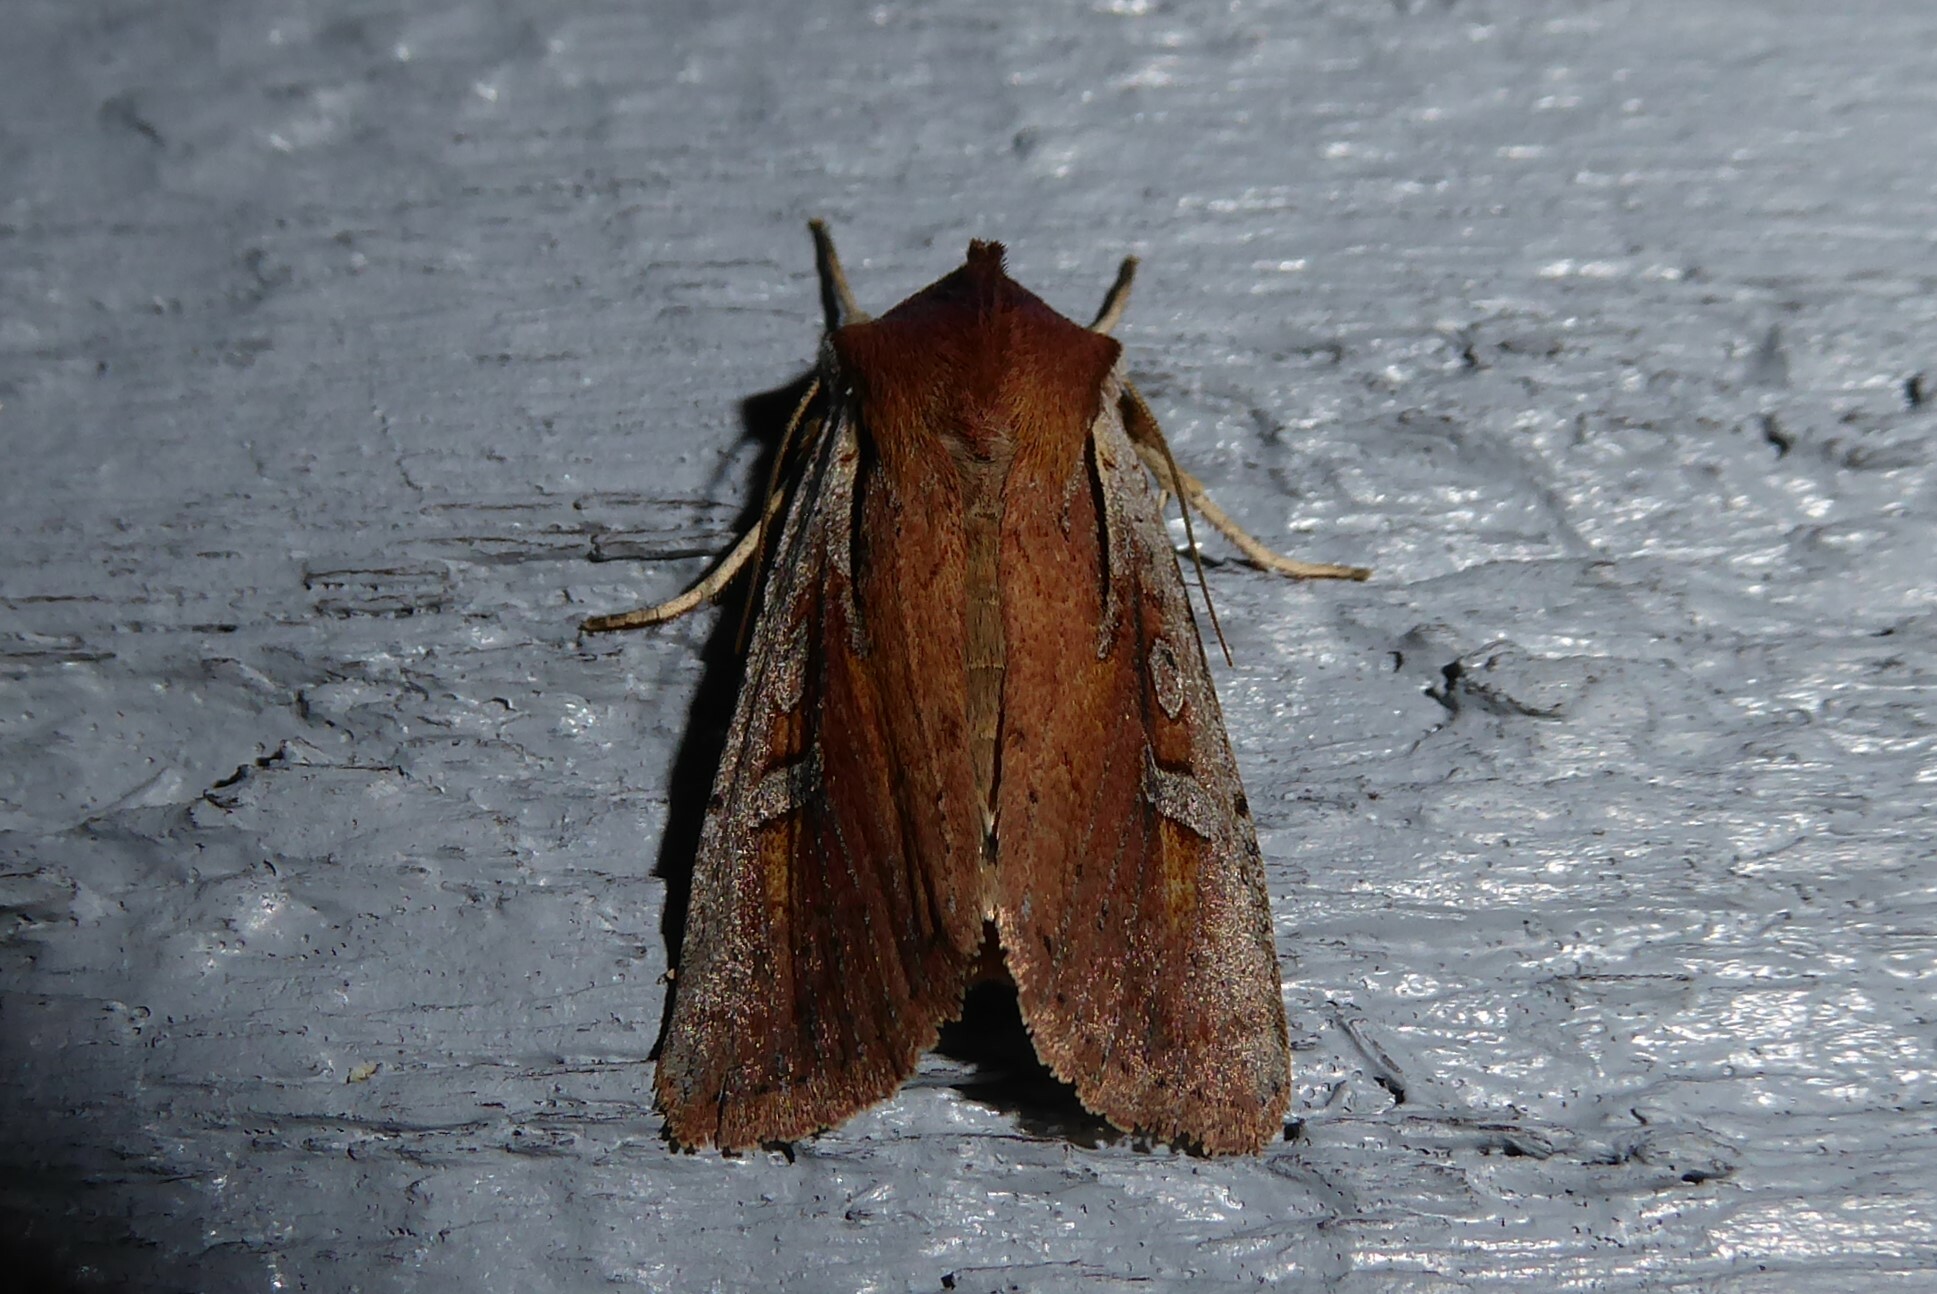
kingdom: Animalia
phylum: Arthropoda
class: Insecta
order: Lepidoptera
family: Noctuidae
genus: Ichneutica
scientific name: Ichneutica atristriga
